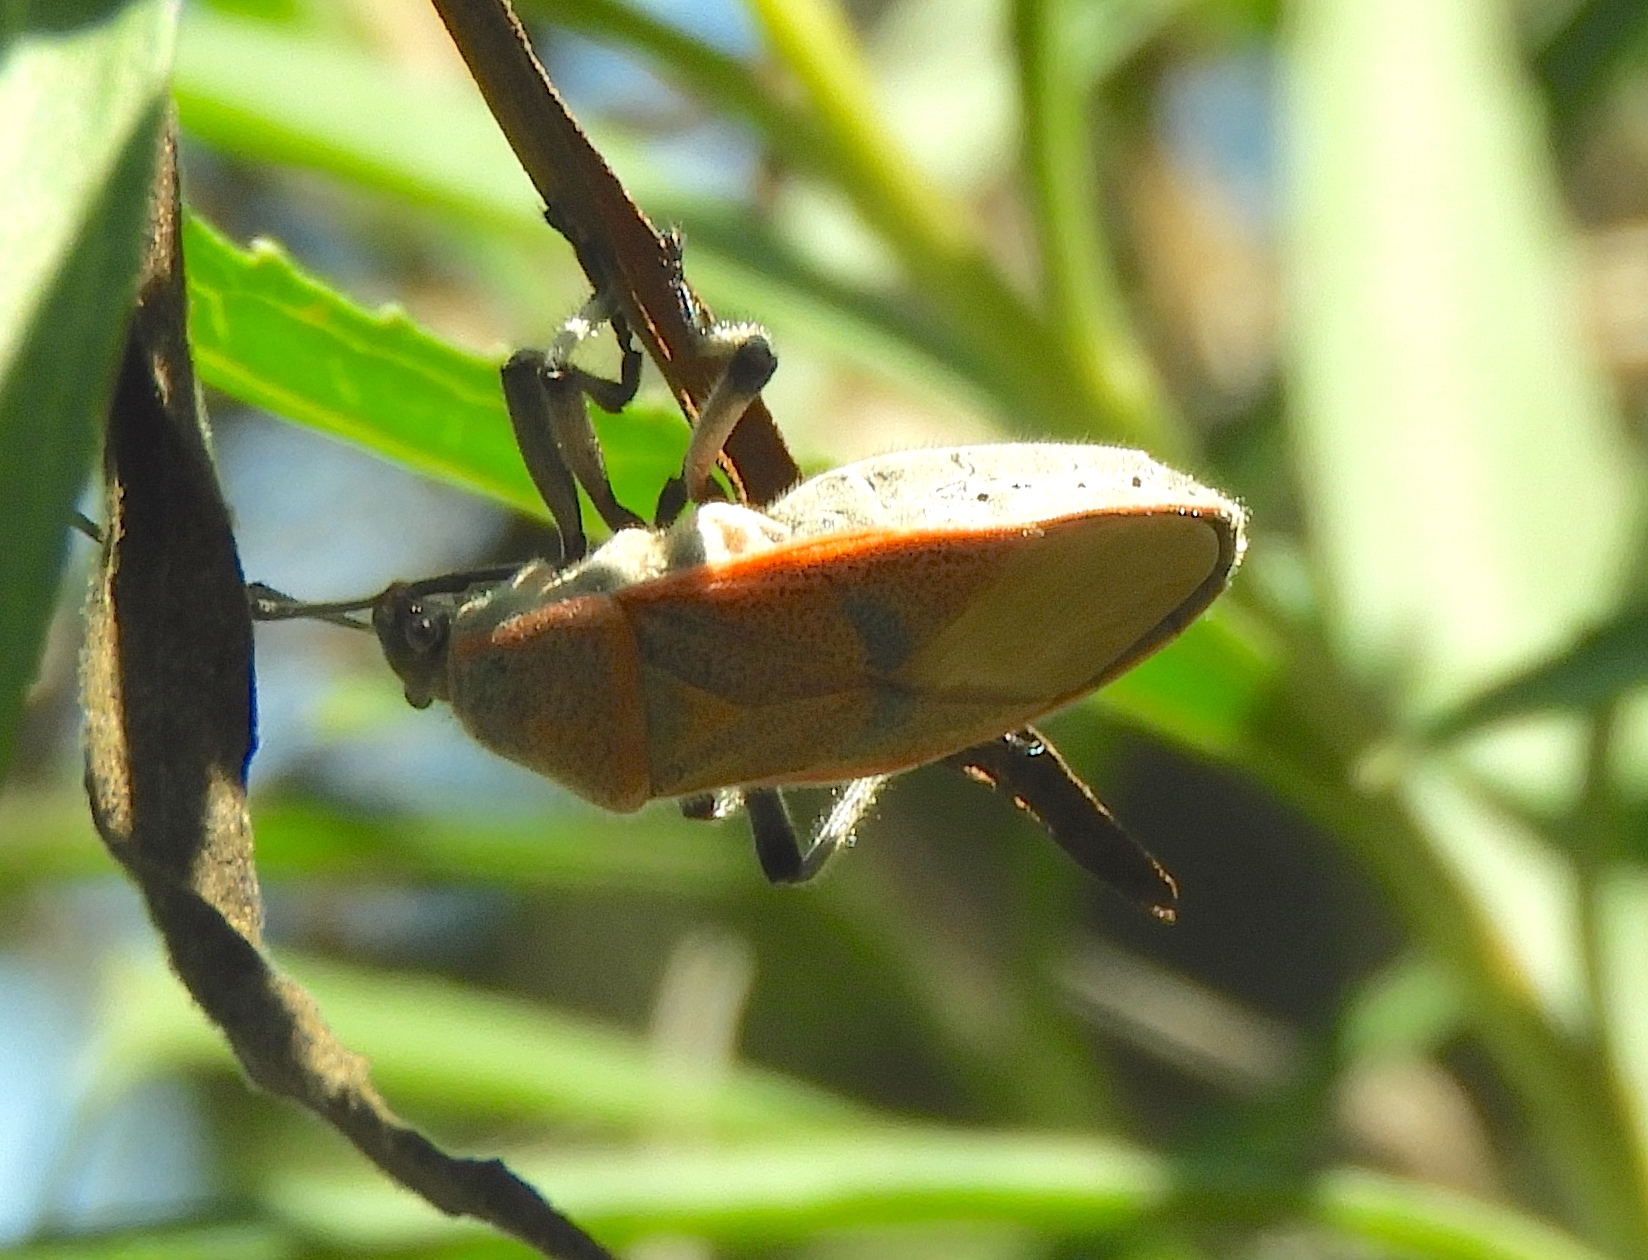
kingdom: Animalia
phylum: Arthropoda
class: Insecta
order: Hemiptera
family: Largidae
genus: Largus
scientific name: Largus
